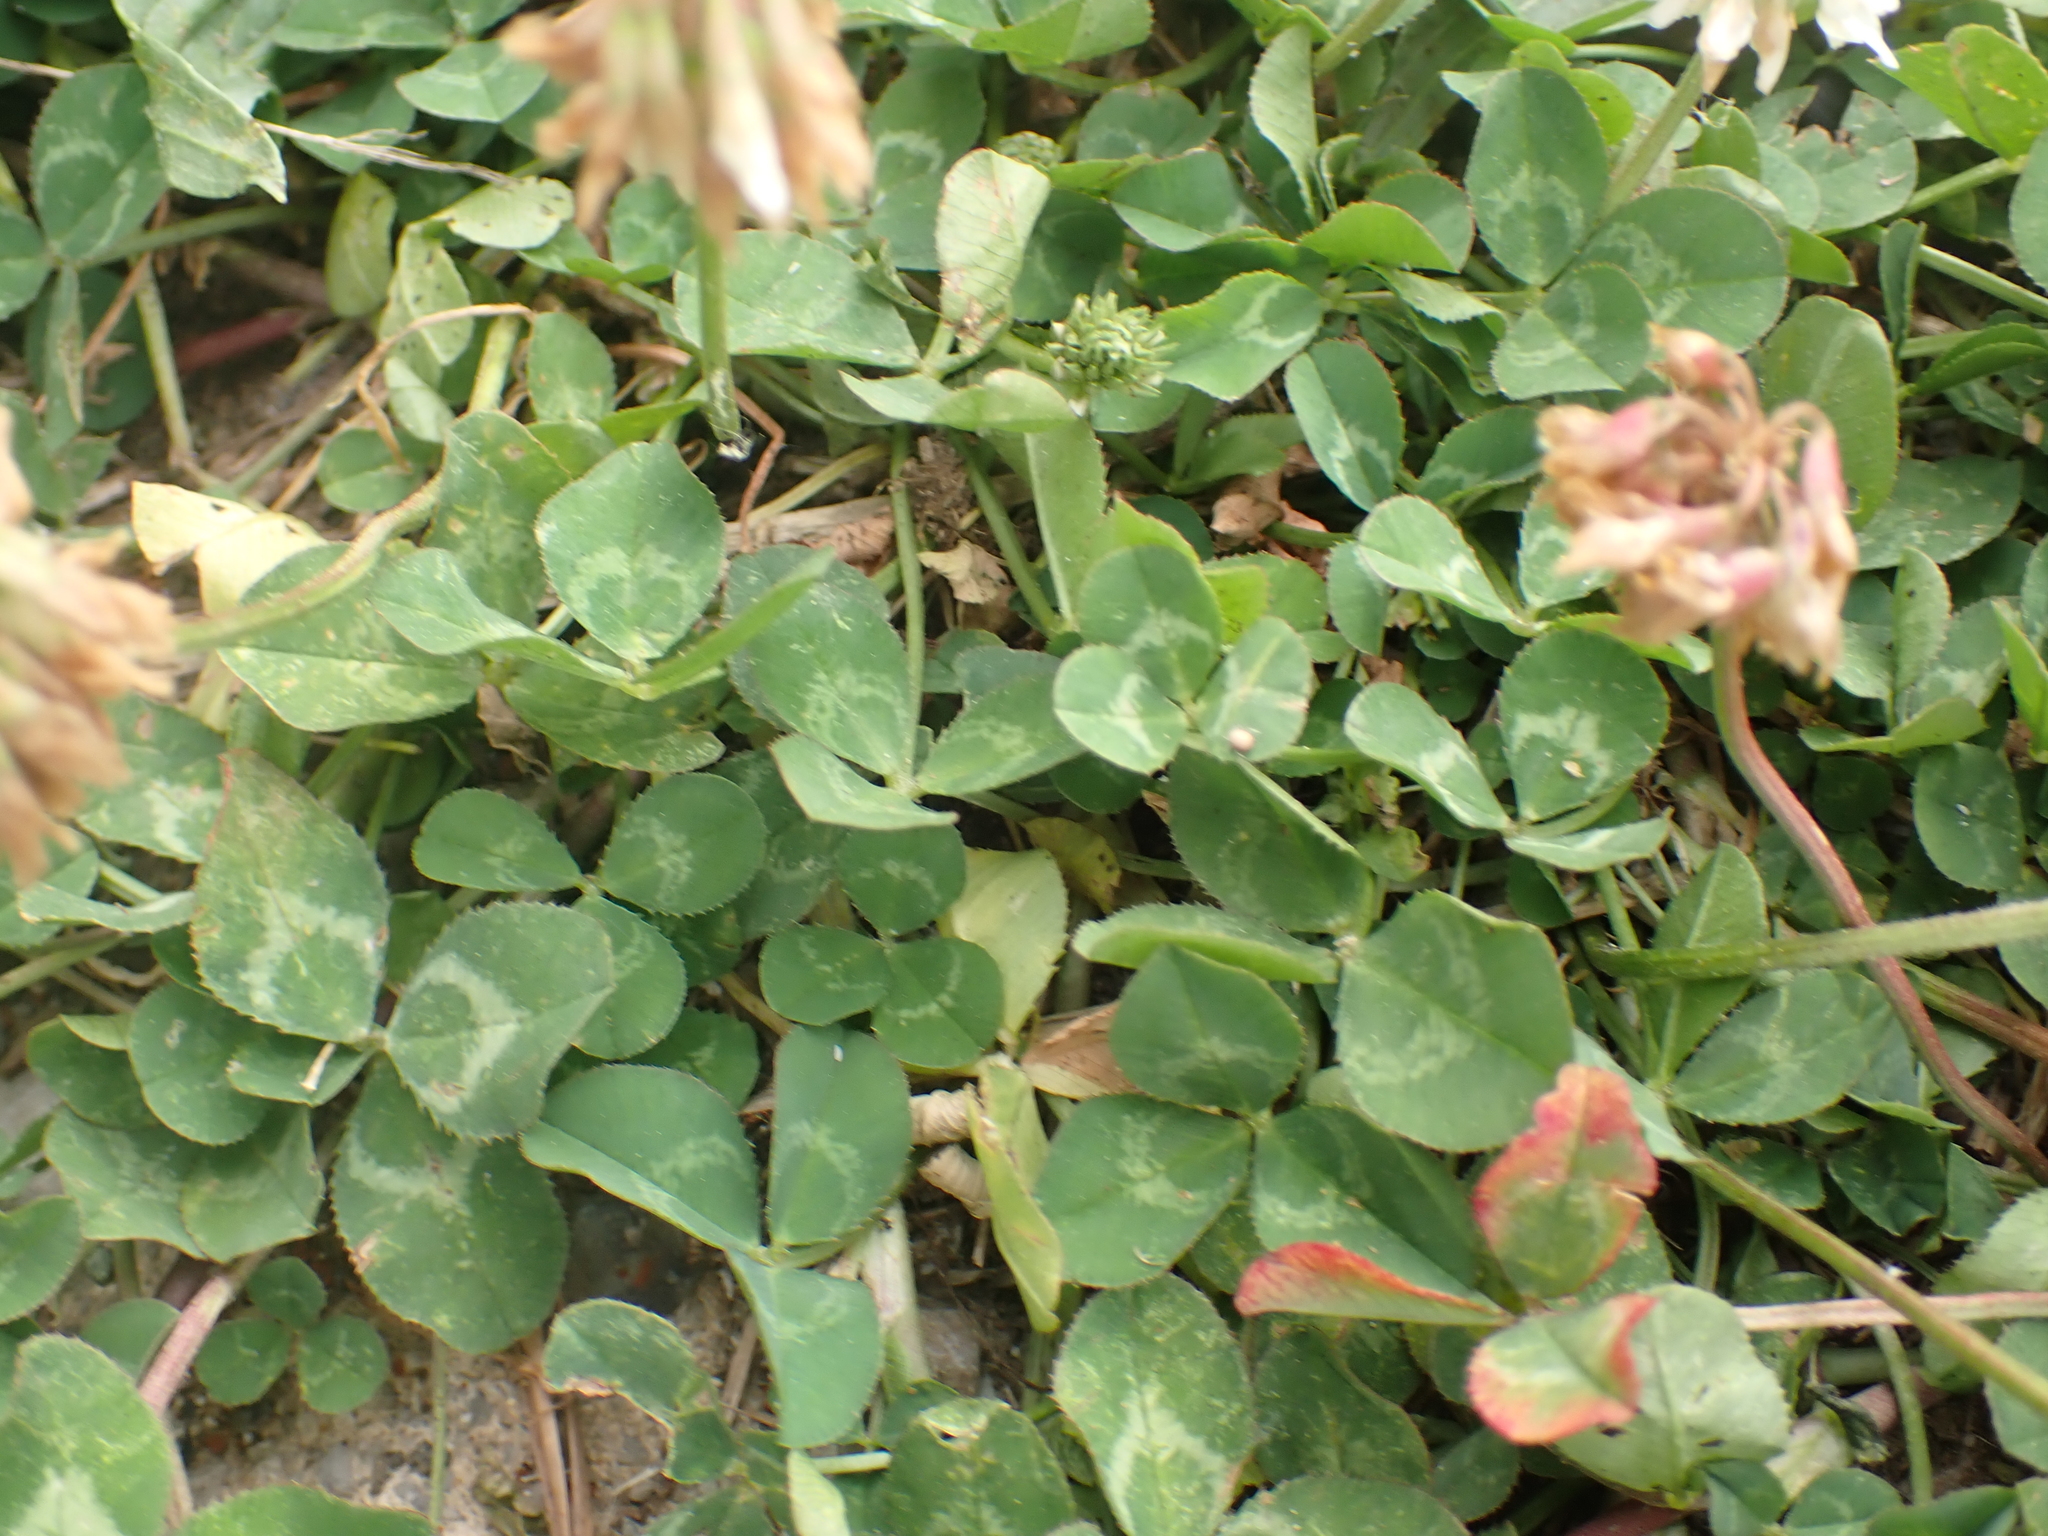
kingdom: Plantae
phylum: Tracheophyta
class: Magnoliopsida
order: Fabales
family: Fabaceae
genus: Trifolium
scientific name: Trifolium repens
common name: White clover
